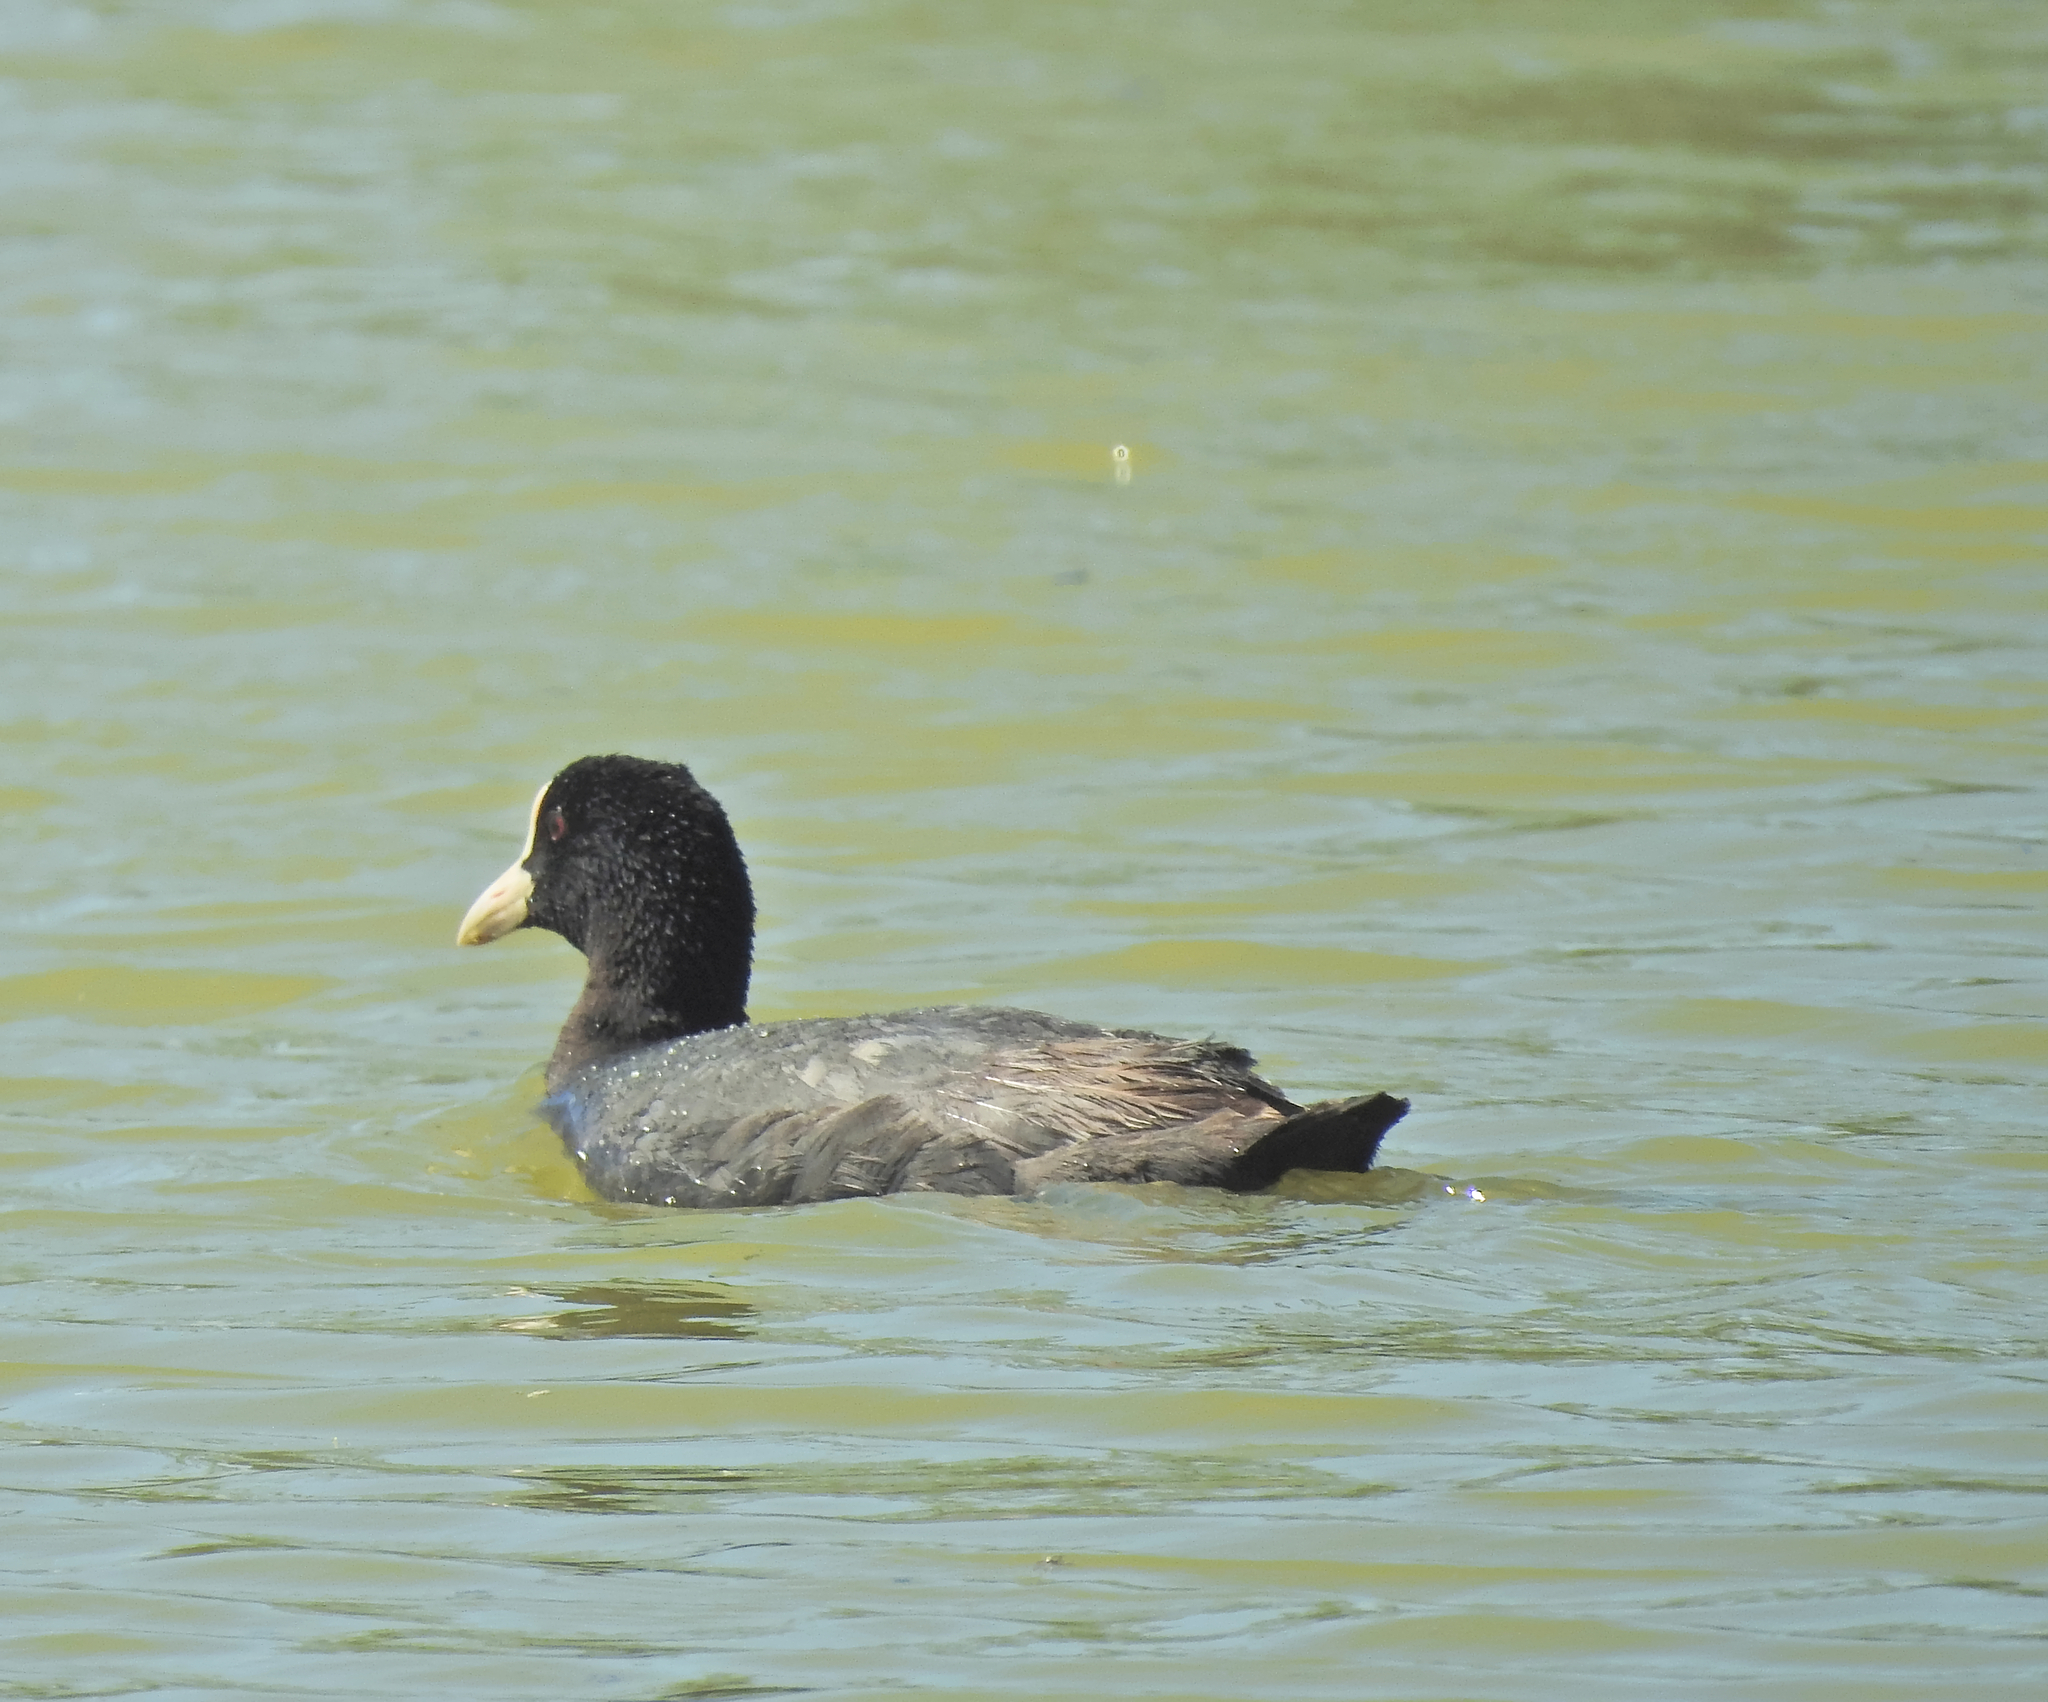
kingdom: Animalia
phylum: Chordata
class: Aves
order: Gruiformes
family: Rallidae
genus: Fulica
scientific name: Fulica atra
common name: Eurasian coot
